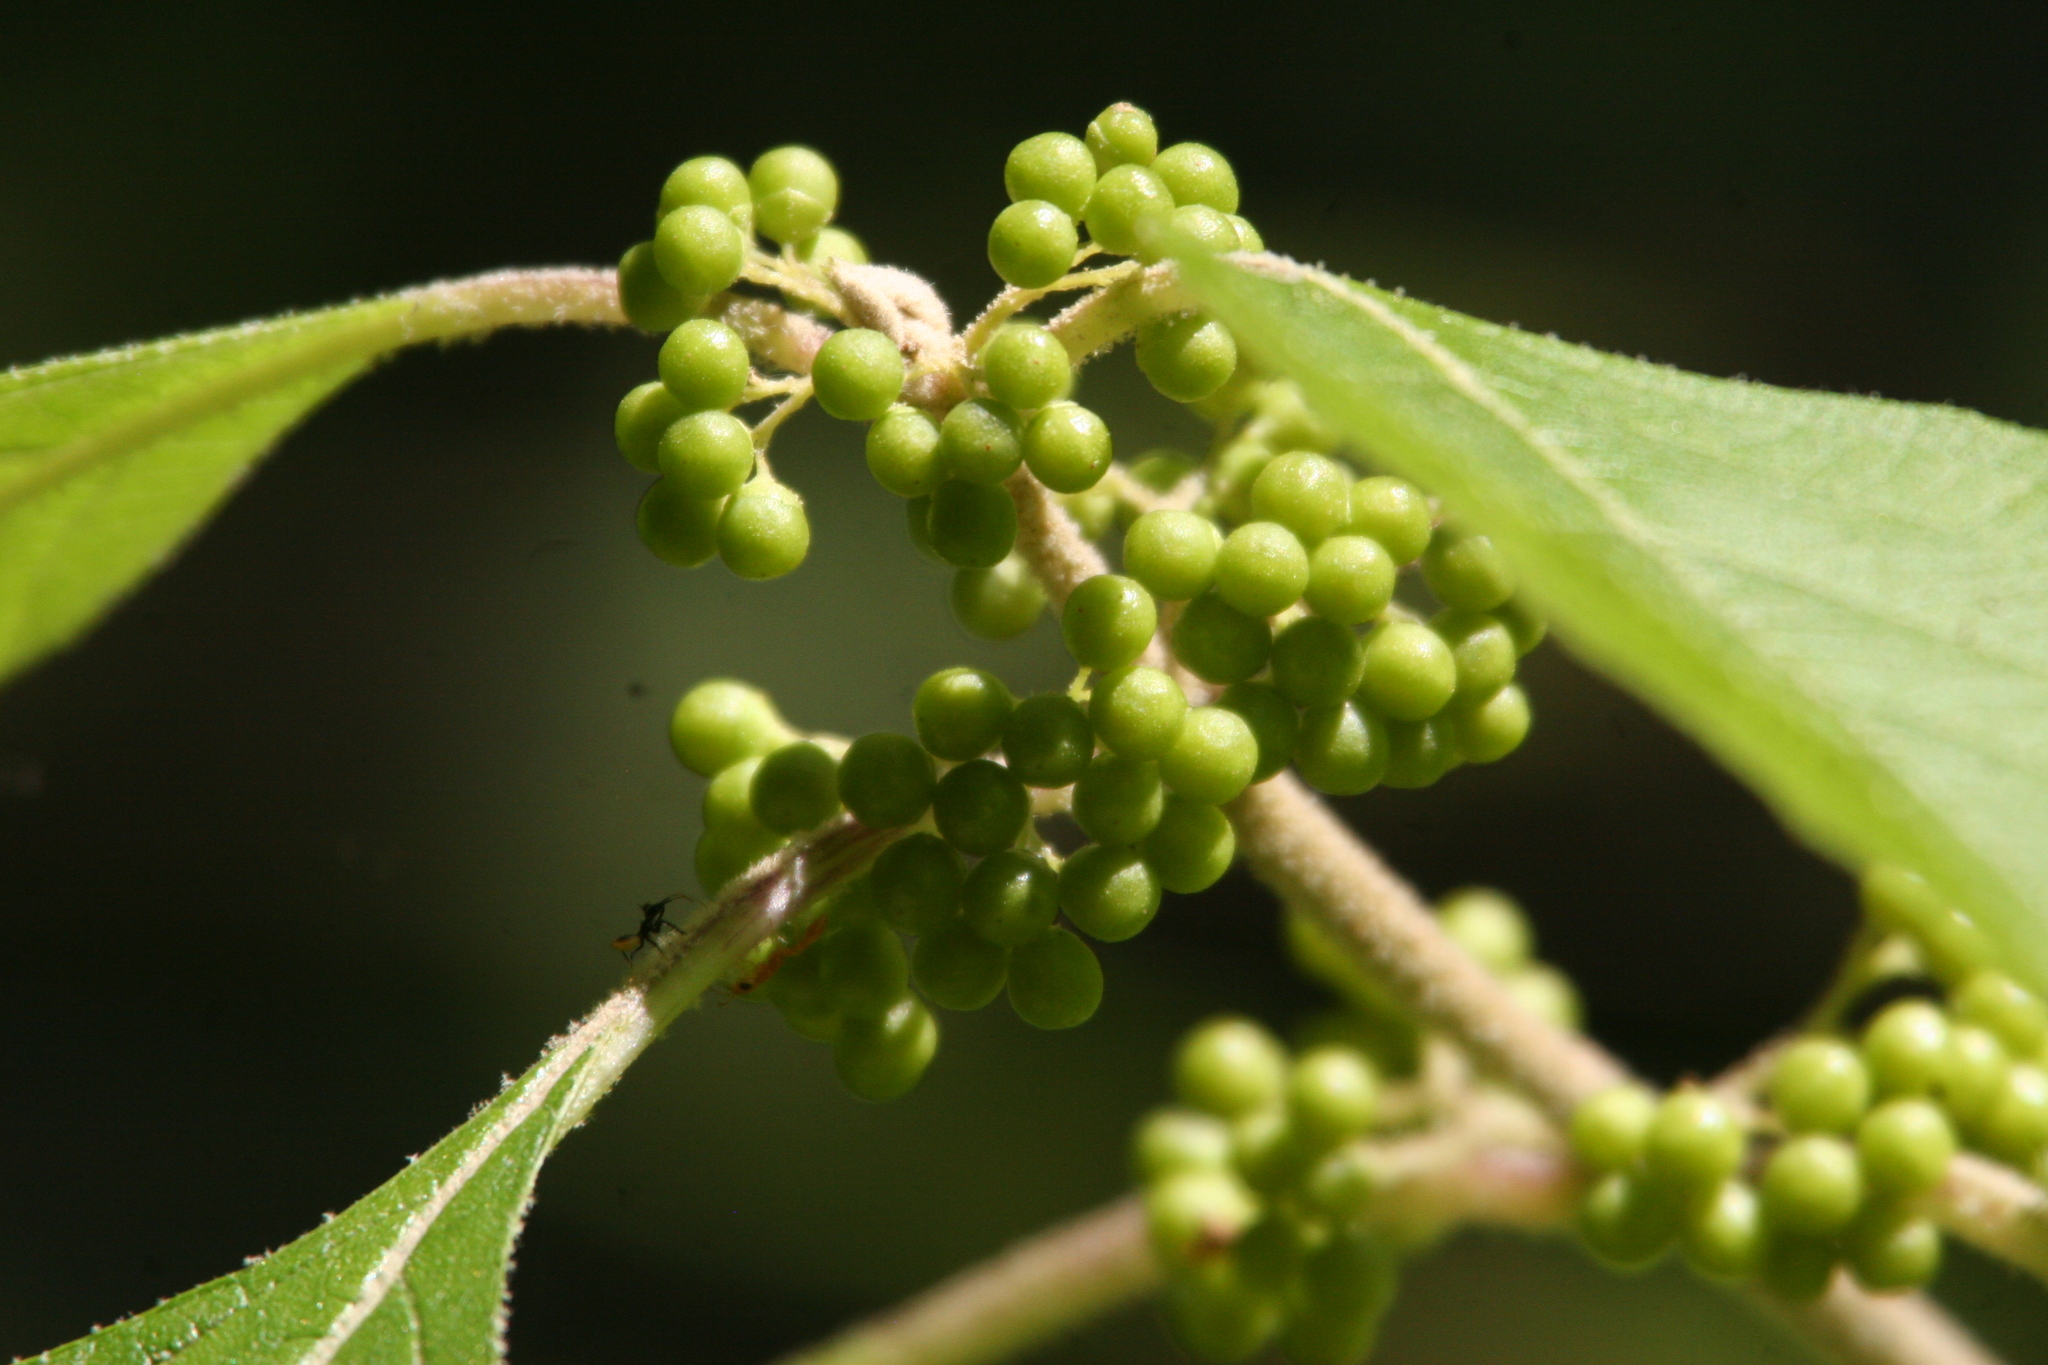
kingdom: Plantae
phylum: Tracheophyta
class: Magnoliopsida
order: Lamiales
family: Lamiaceae
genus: Callicarpa
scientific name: Callicarpa americana
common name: American beautyberry
